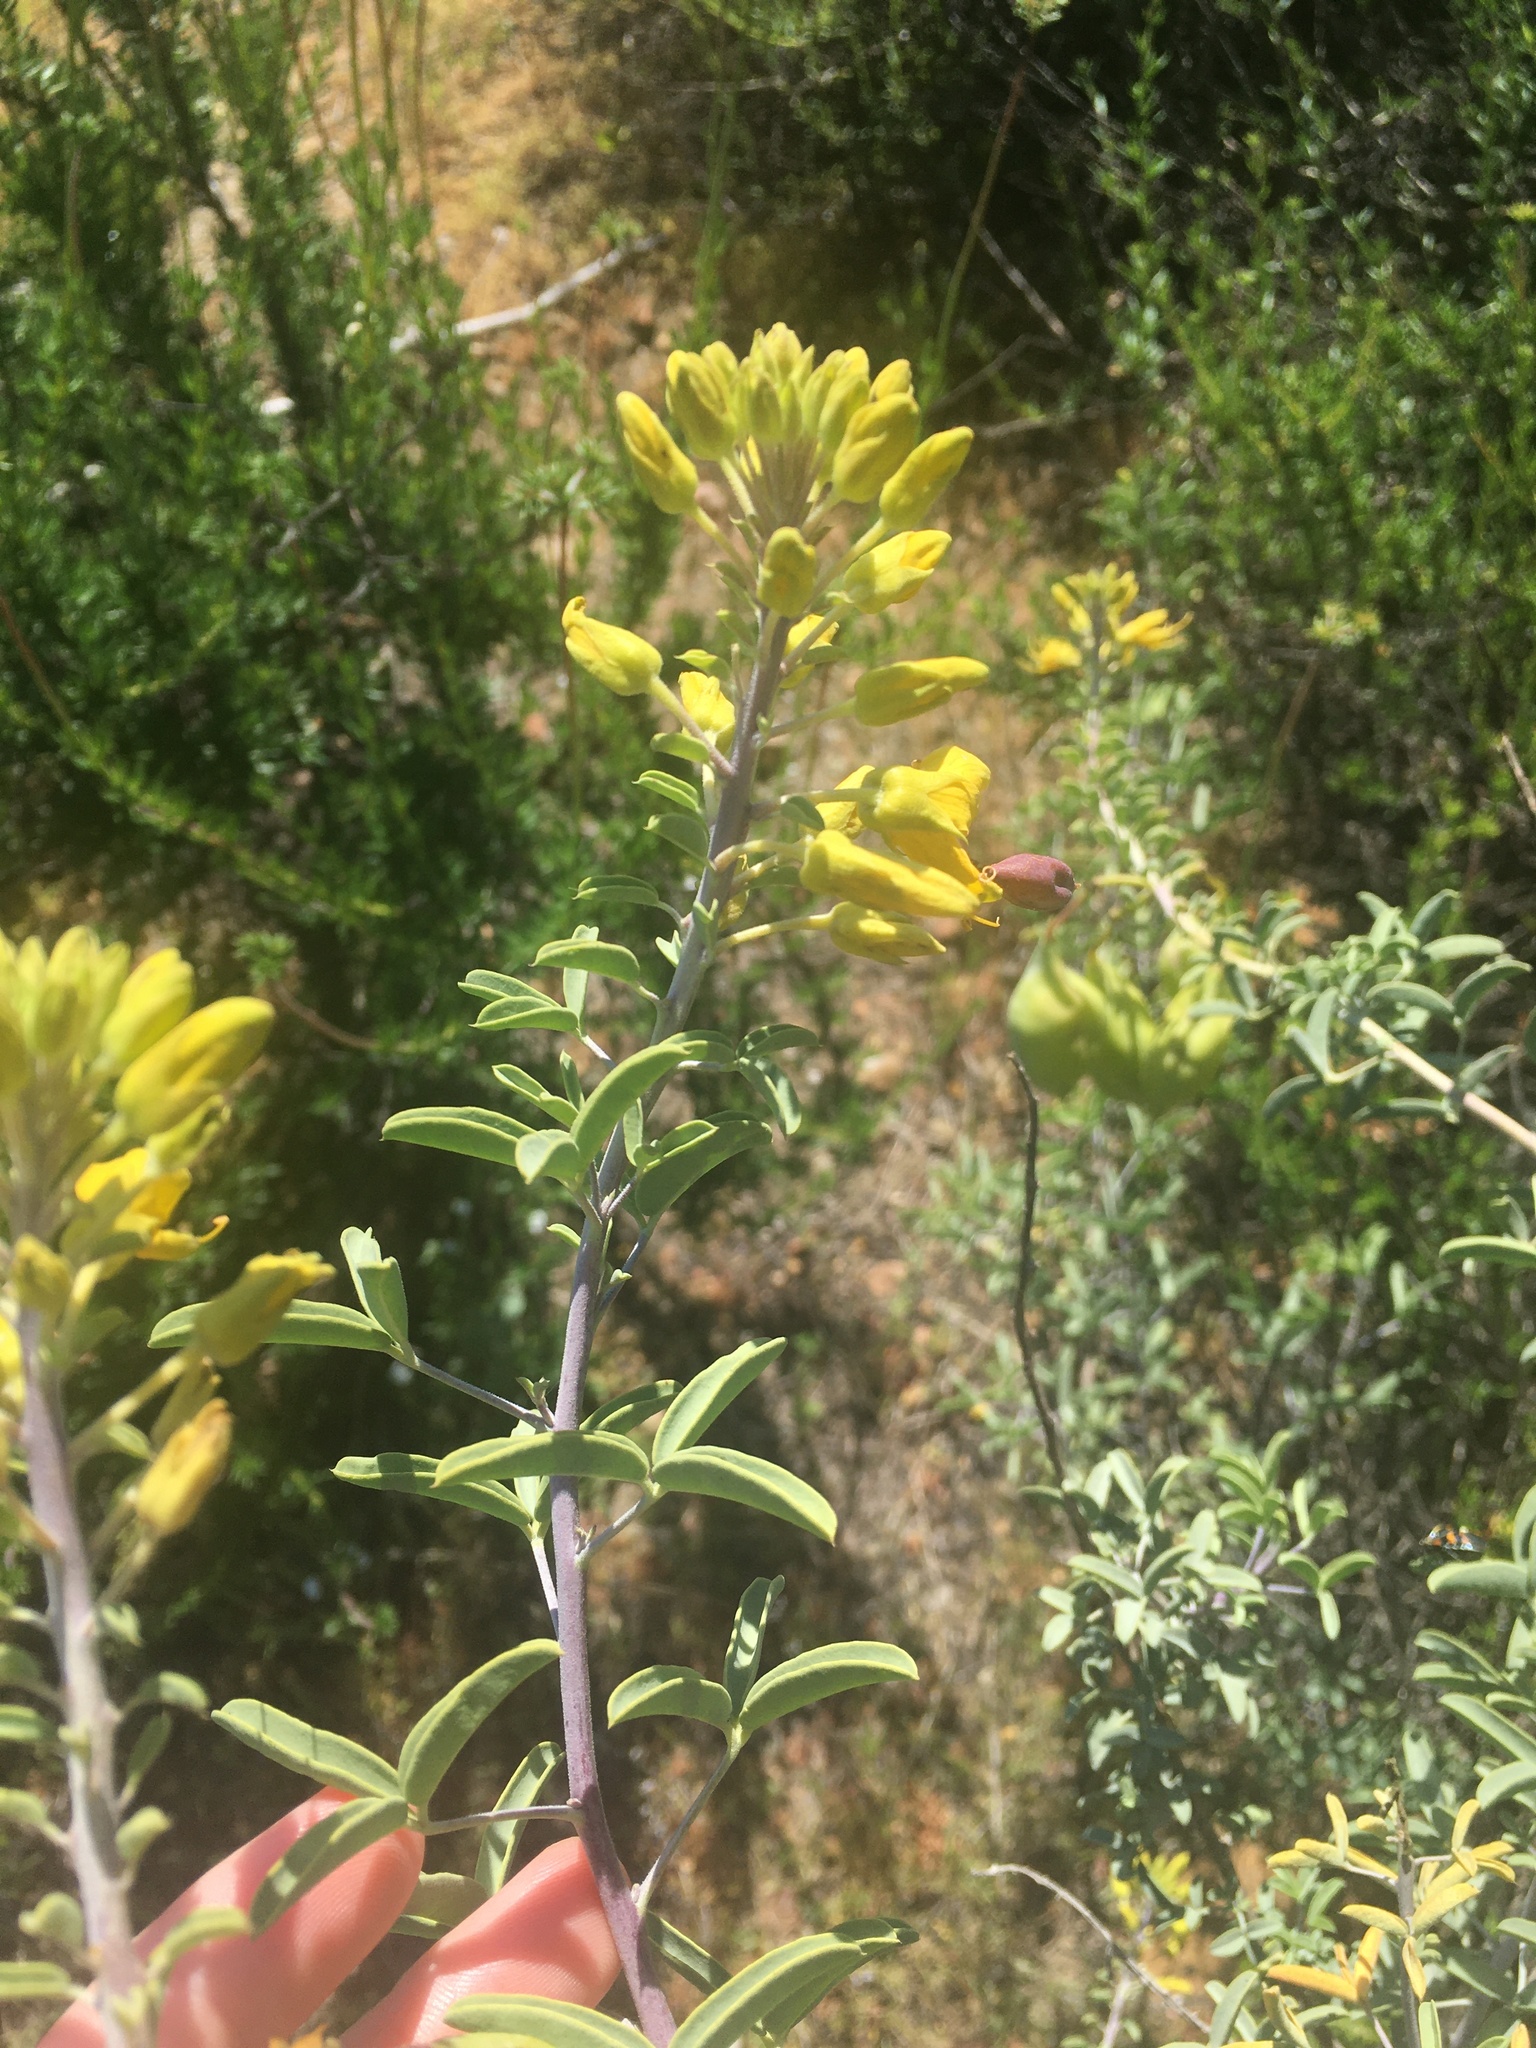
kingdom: Plantae
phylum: Tracheophyta
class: Magnoliopsida
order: Brassicales
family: Cleomaceae
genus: Cleomella
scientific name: Cleomella arborea
